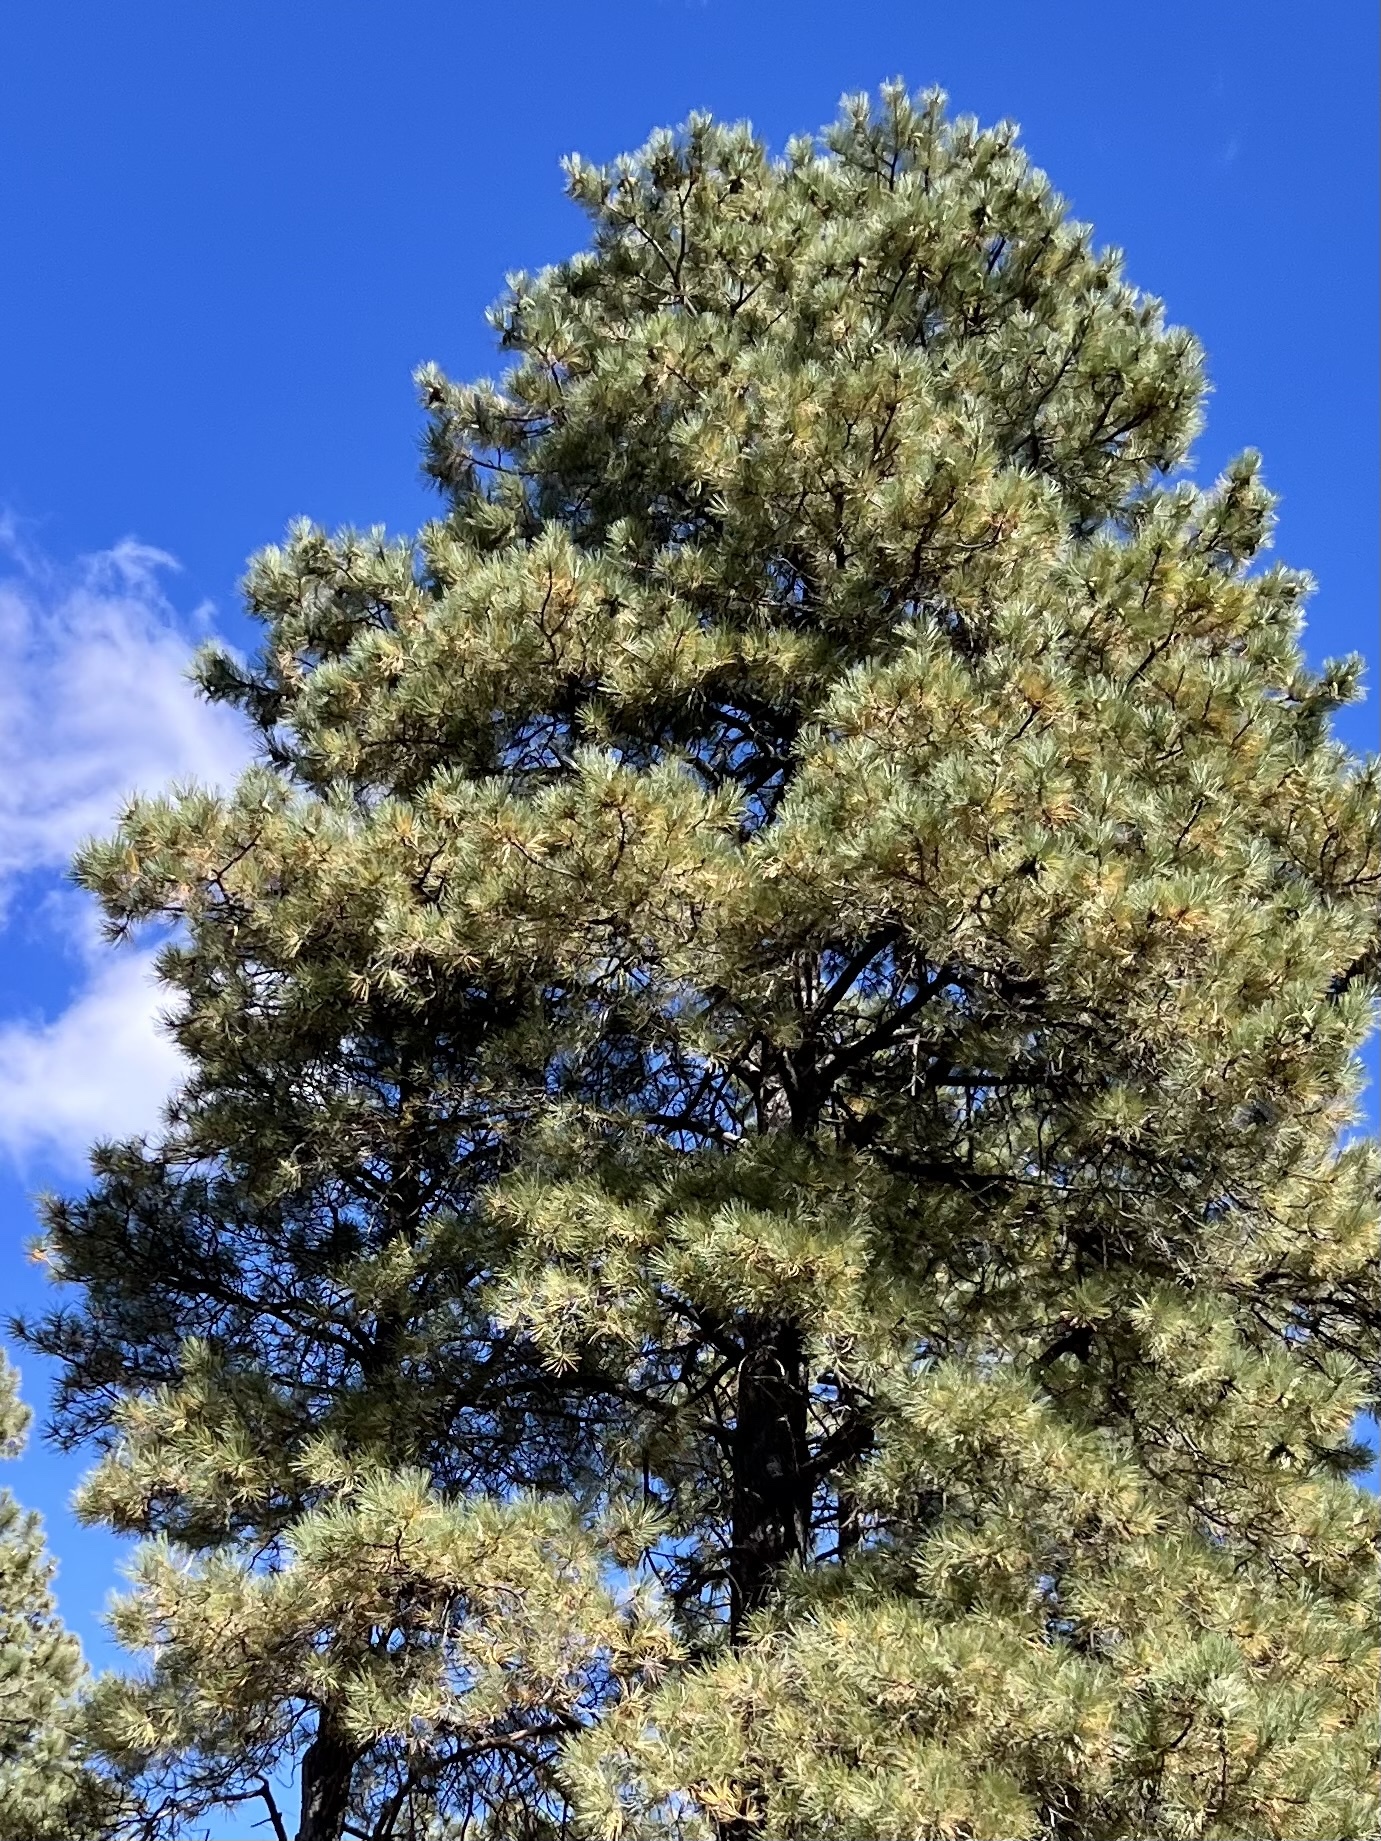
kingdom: Plantae
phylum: Tracheophyta
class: Pinopsida
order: Pinales
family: Pinaceae
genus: Pinus
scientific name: Pinus ponderosa
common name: Western yellow-pine
